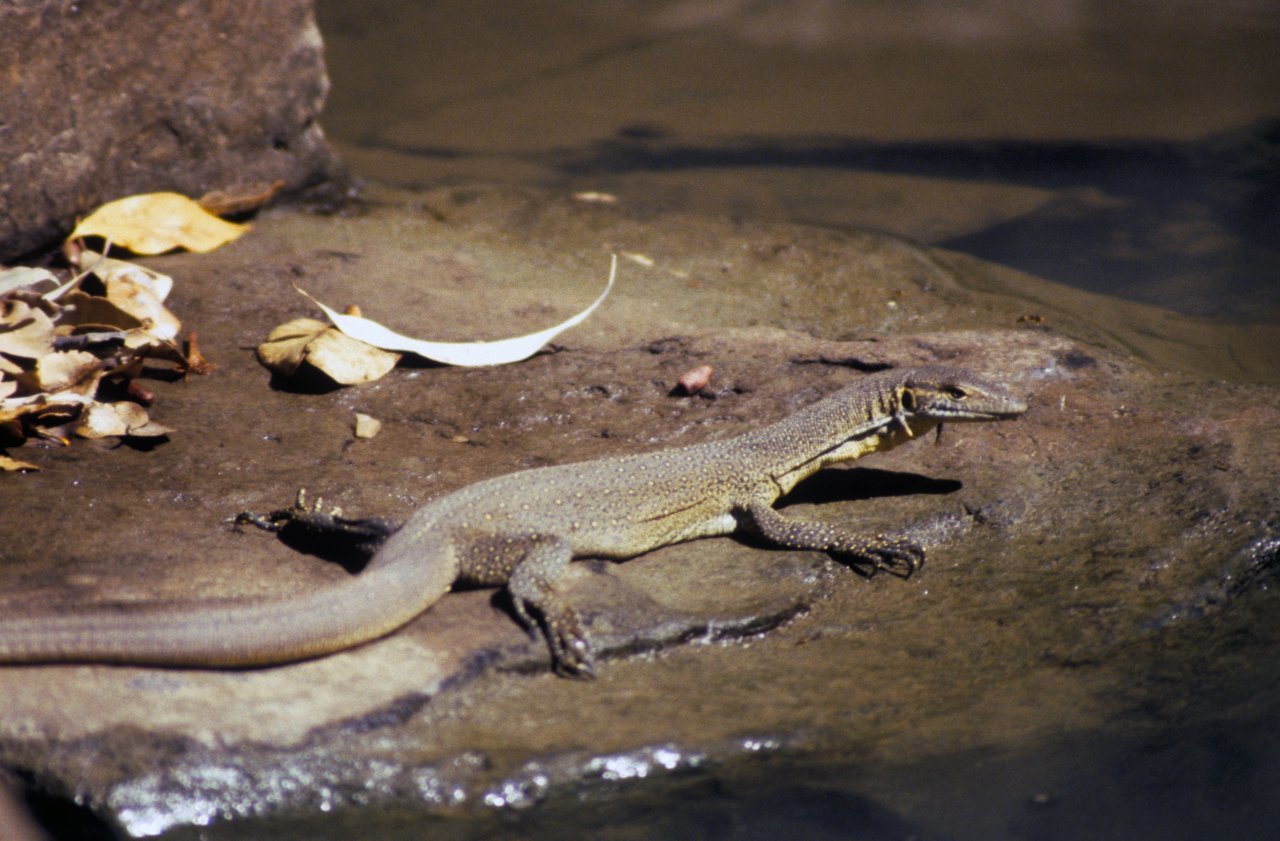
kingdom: Animalia
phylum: Chordata
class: Squamata
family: Varanidae
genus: Varanus
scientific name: Varanus mertensi
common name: Mertens's water monitor
